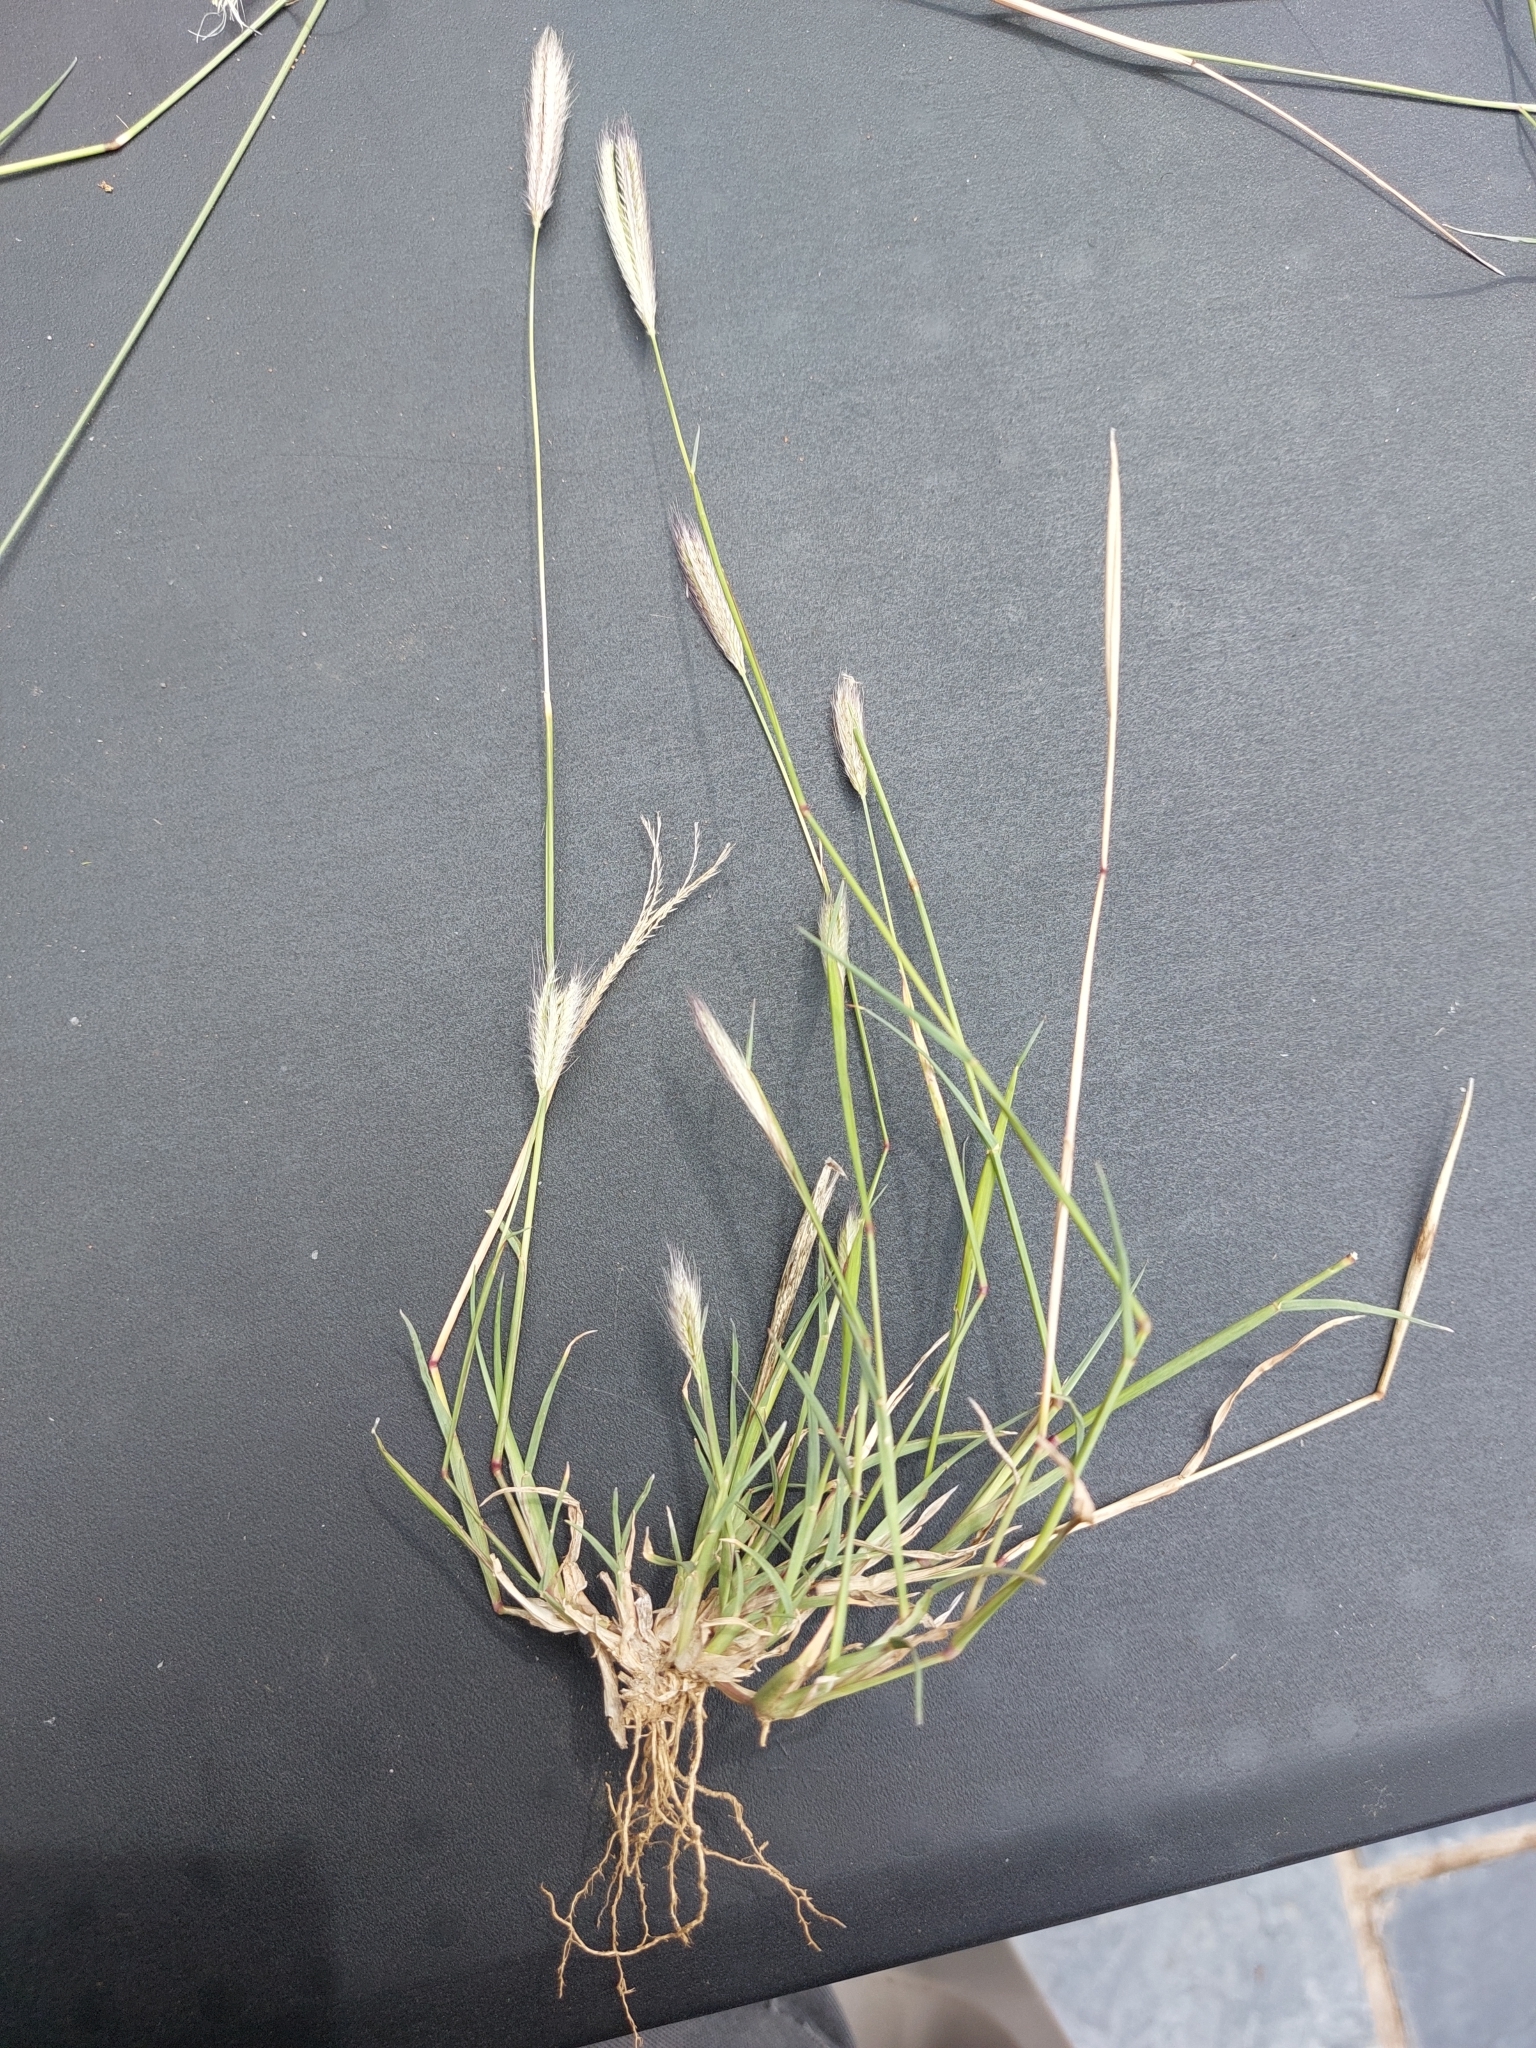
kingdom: Plantae
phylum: Tracheophyta
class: Liliopsida
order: Poales
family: Poaceae
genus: Chloris
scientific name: Chloris virgata
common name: Feathery rhodes-grass
